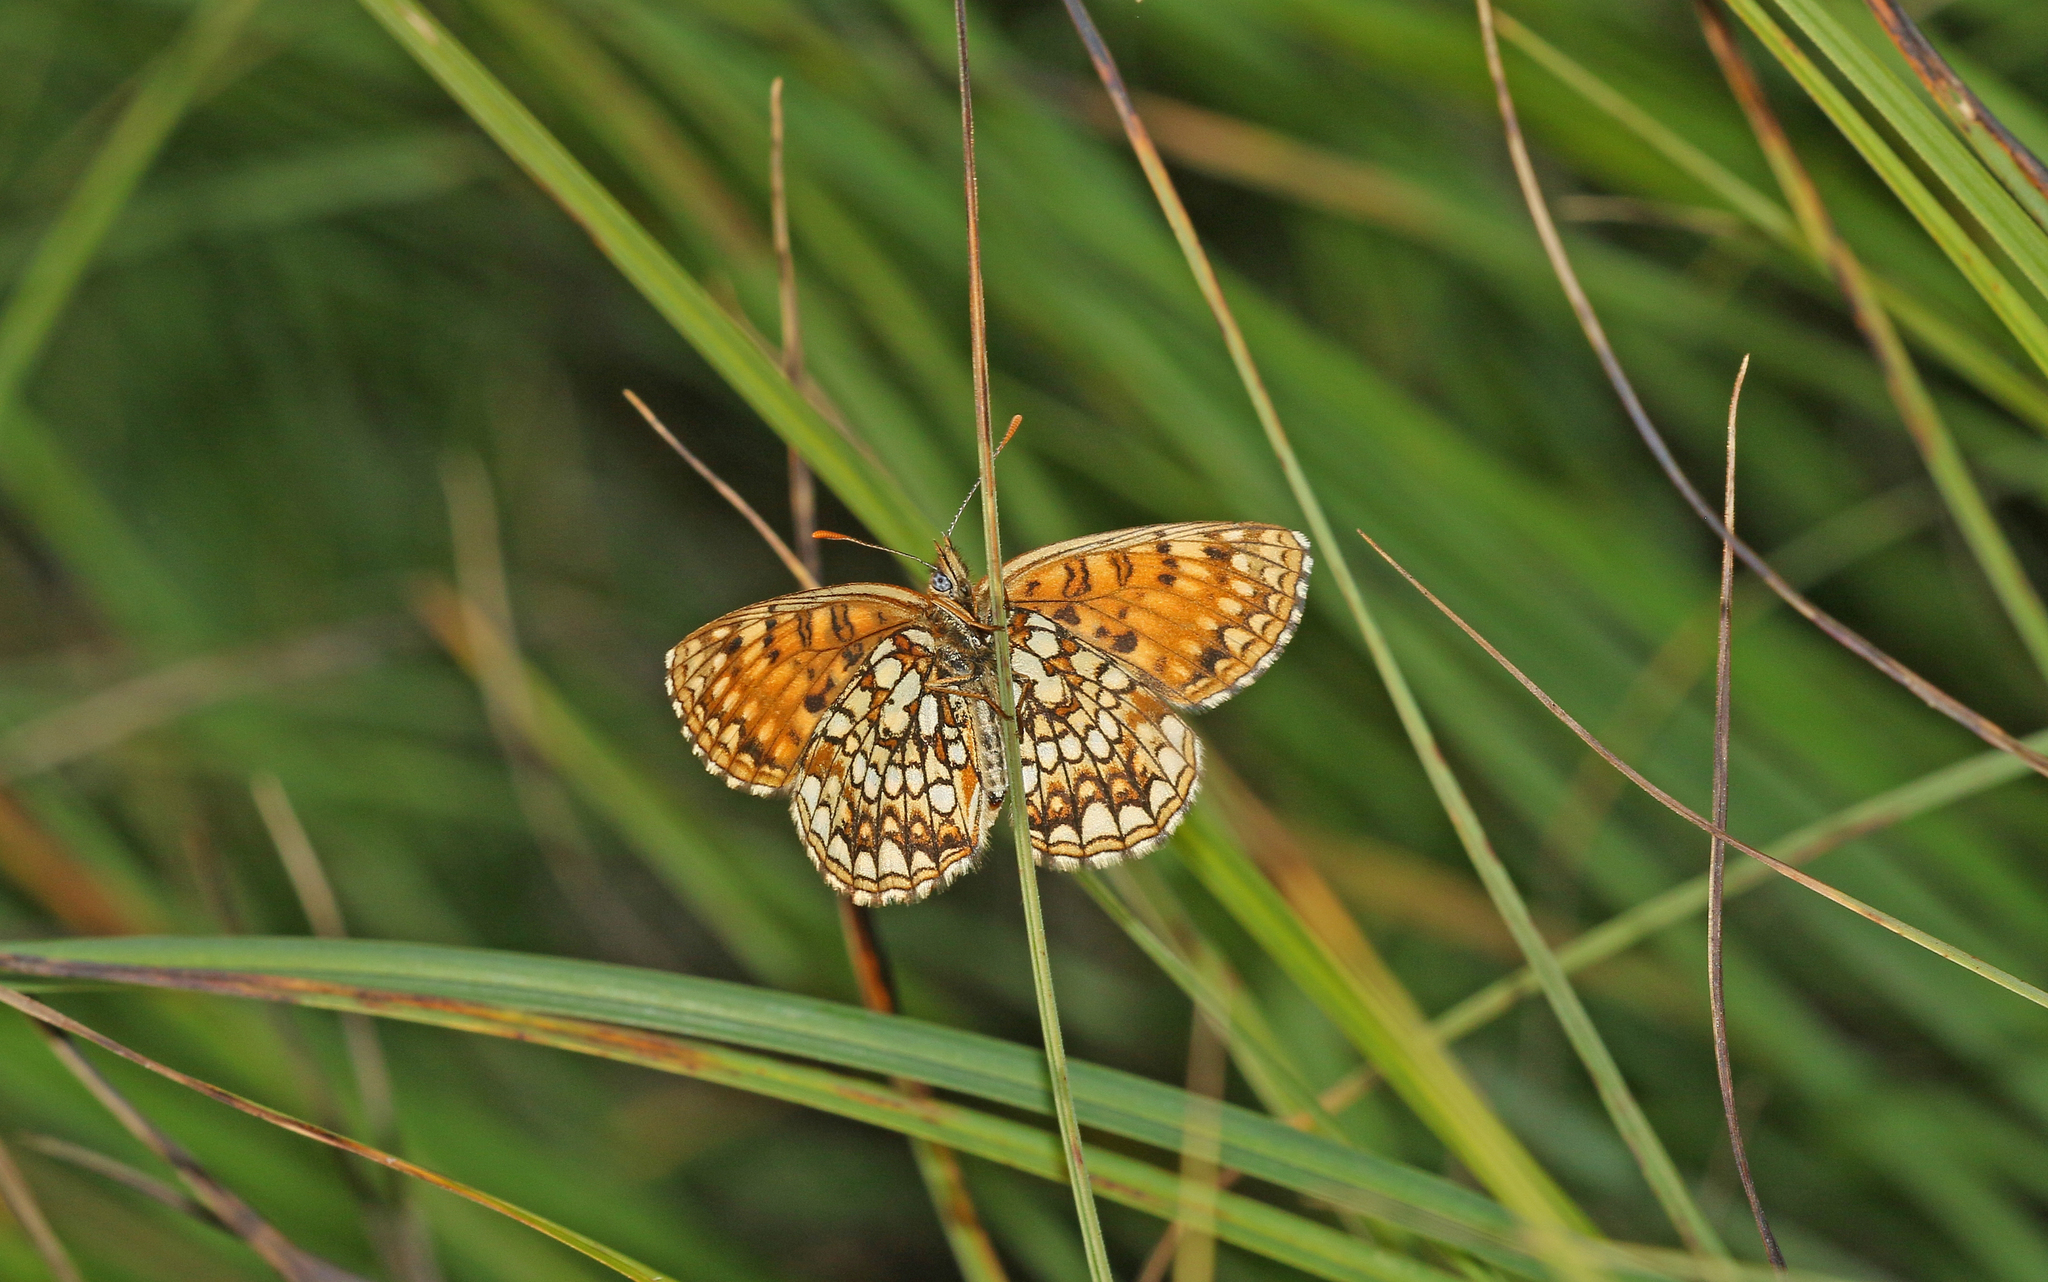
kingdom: Animalia
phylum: Arthropoda
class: Insecta
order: Lepidoptera
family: Nymphalidae
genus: Melitaea
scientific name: Melitaea diamina
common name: False heath fritillary
